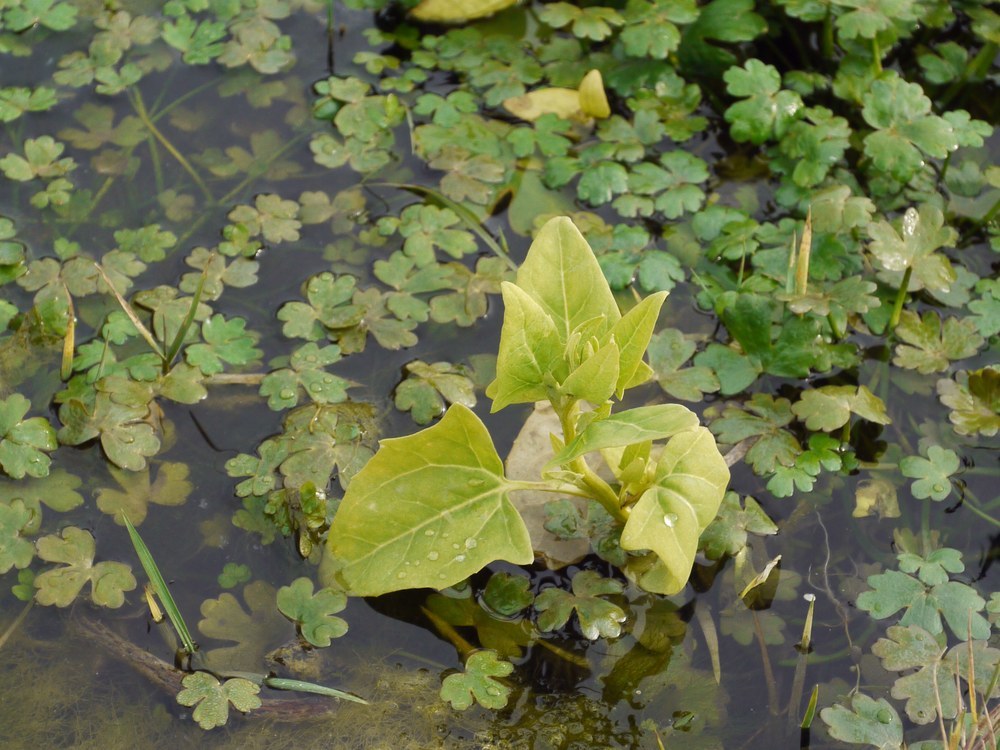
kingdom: Plantae
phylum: Tracheophyta
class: Magnoliopsida
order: Caryophyllales
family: Amaranthaceae
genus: Atriplex
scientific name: Atriplex prostrata
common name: Spear-leaved orache
